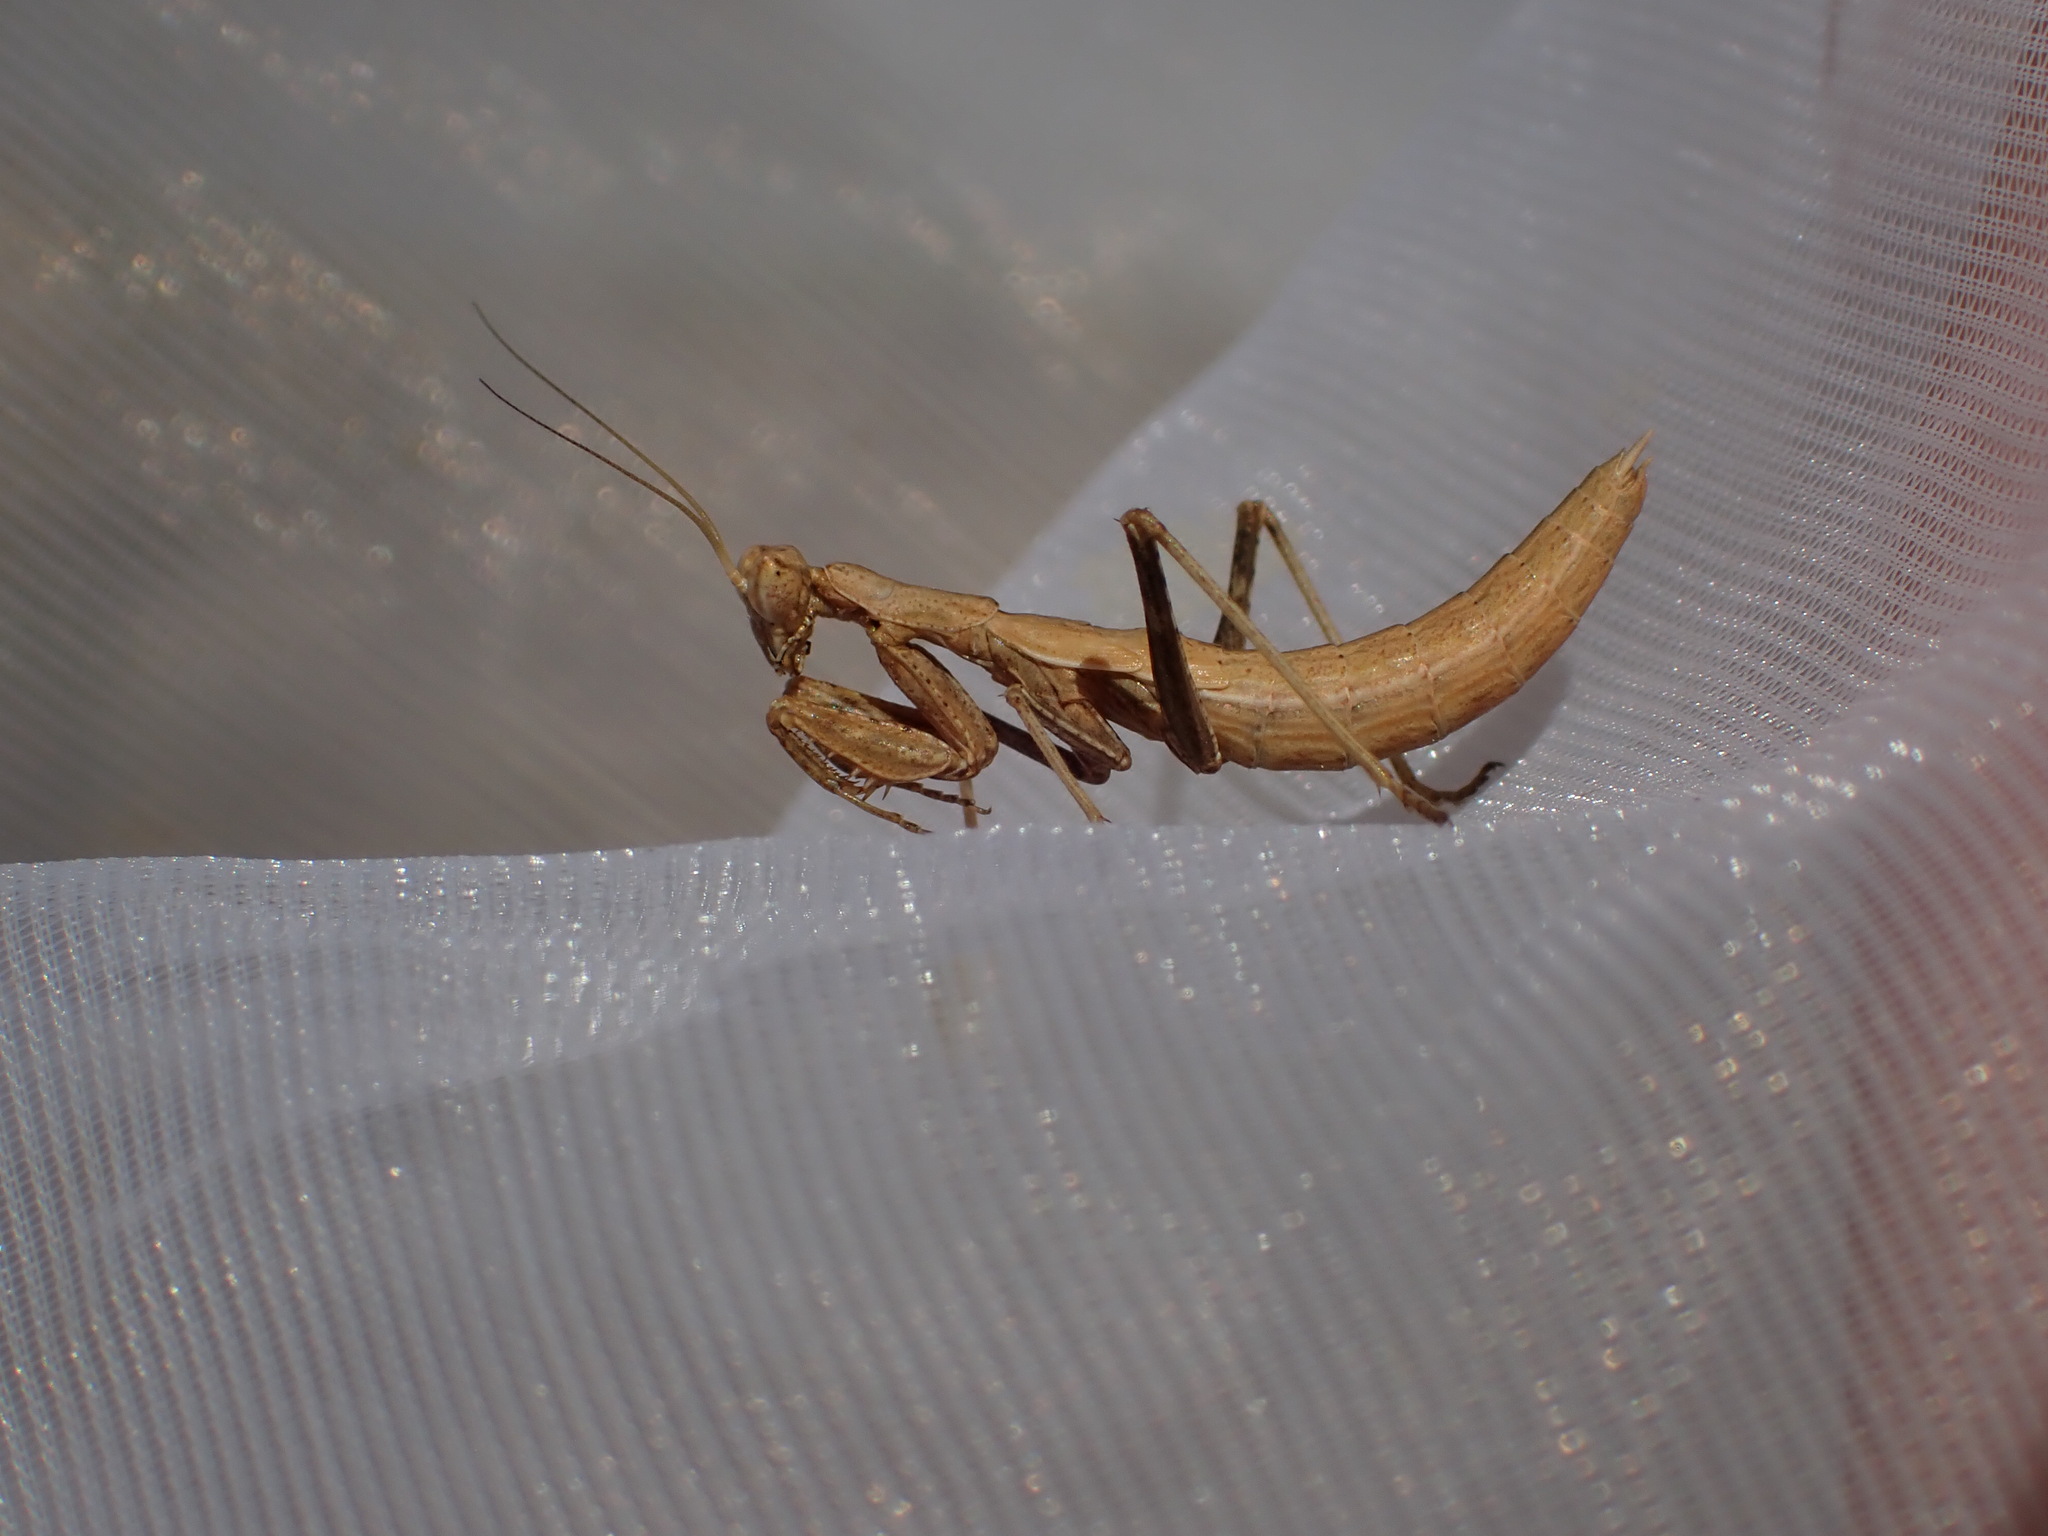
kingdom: Animalia
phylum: Arthropoda
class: Insecta
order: Mantodea
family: Amelidae
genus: Ameles
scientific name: Ameles decolor
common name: Dwarf mantis
